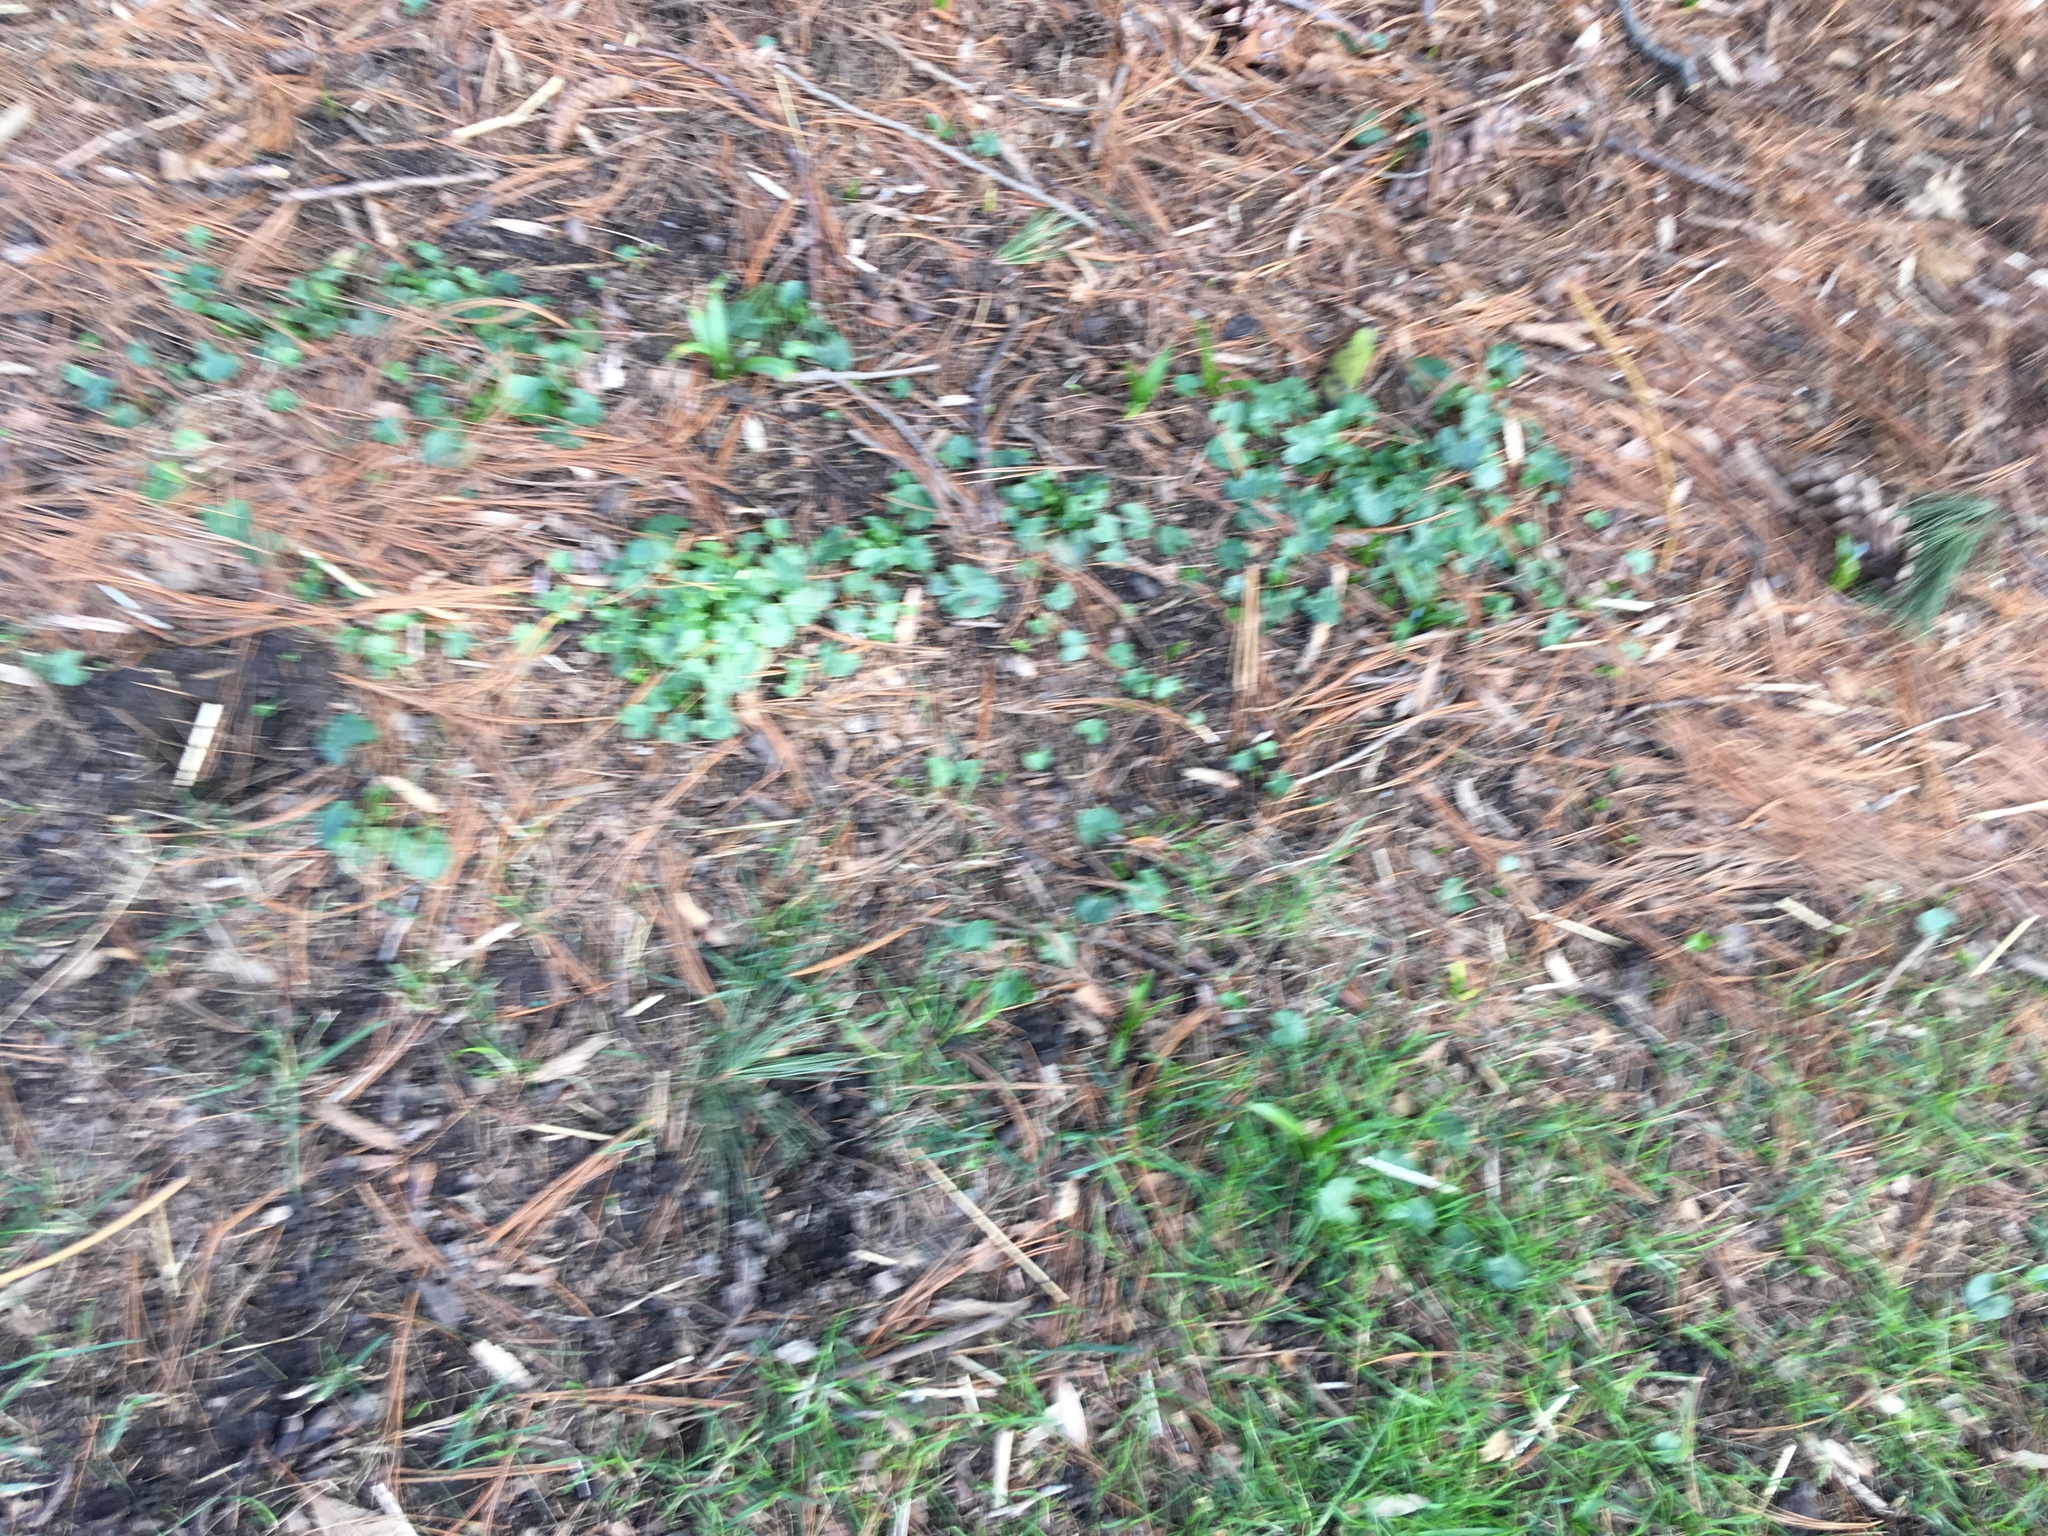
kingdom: Plantae
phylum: Tracheophyta
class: Magnoliopsida
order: Ranunculales
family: Ranunculaceae
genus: Ficaria
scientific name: Ficaria verna
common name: Lesser celandine
